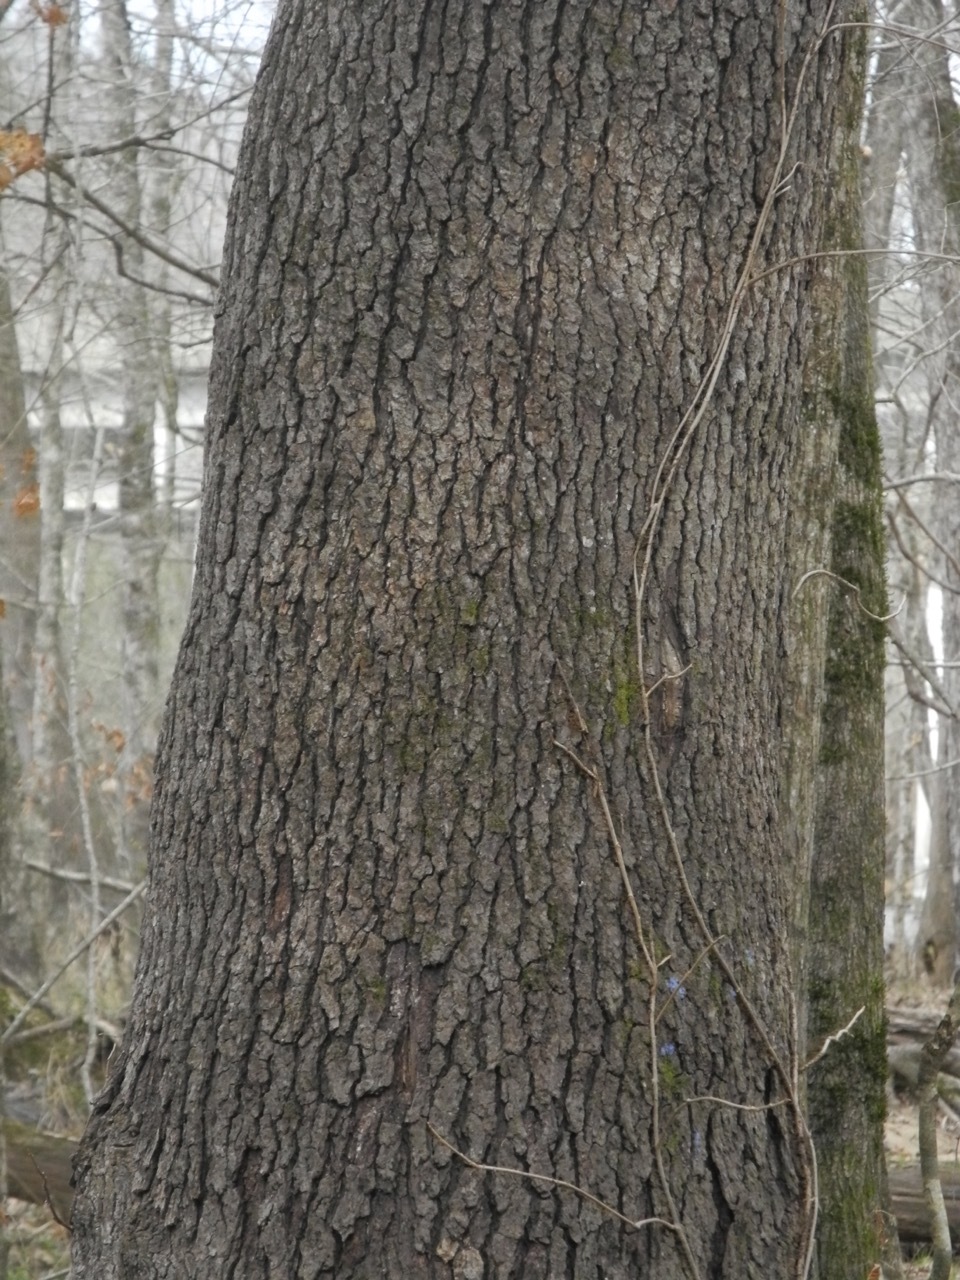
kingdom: Plantae
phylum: Tracheophyta
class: Magnoliopsida
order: Saxifragales
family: Altingiaceae
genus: Liquidambar
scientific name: Liquidambar styraciflua
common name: Sweet gum
